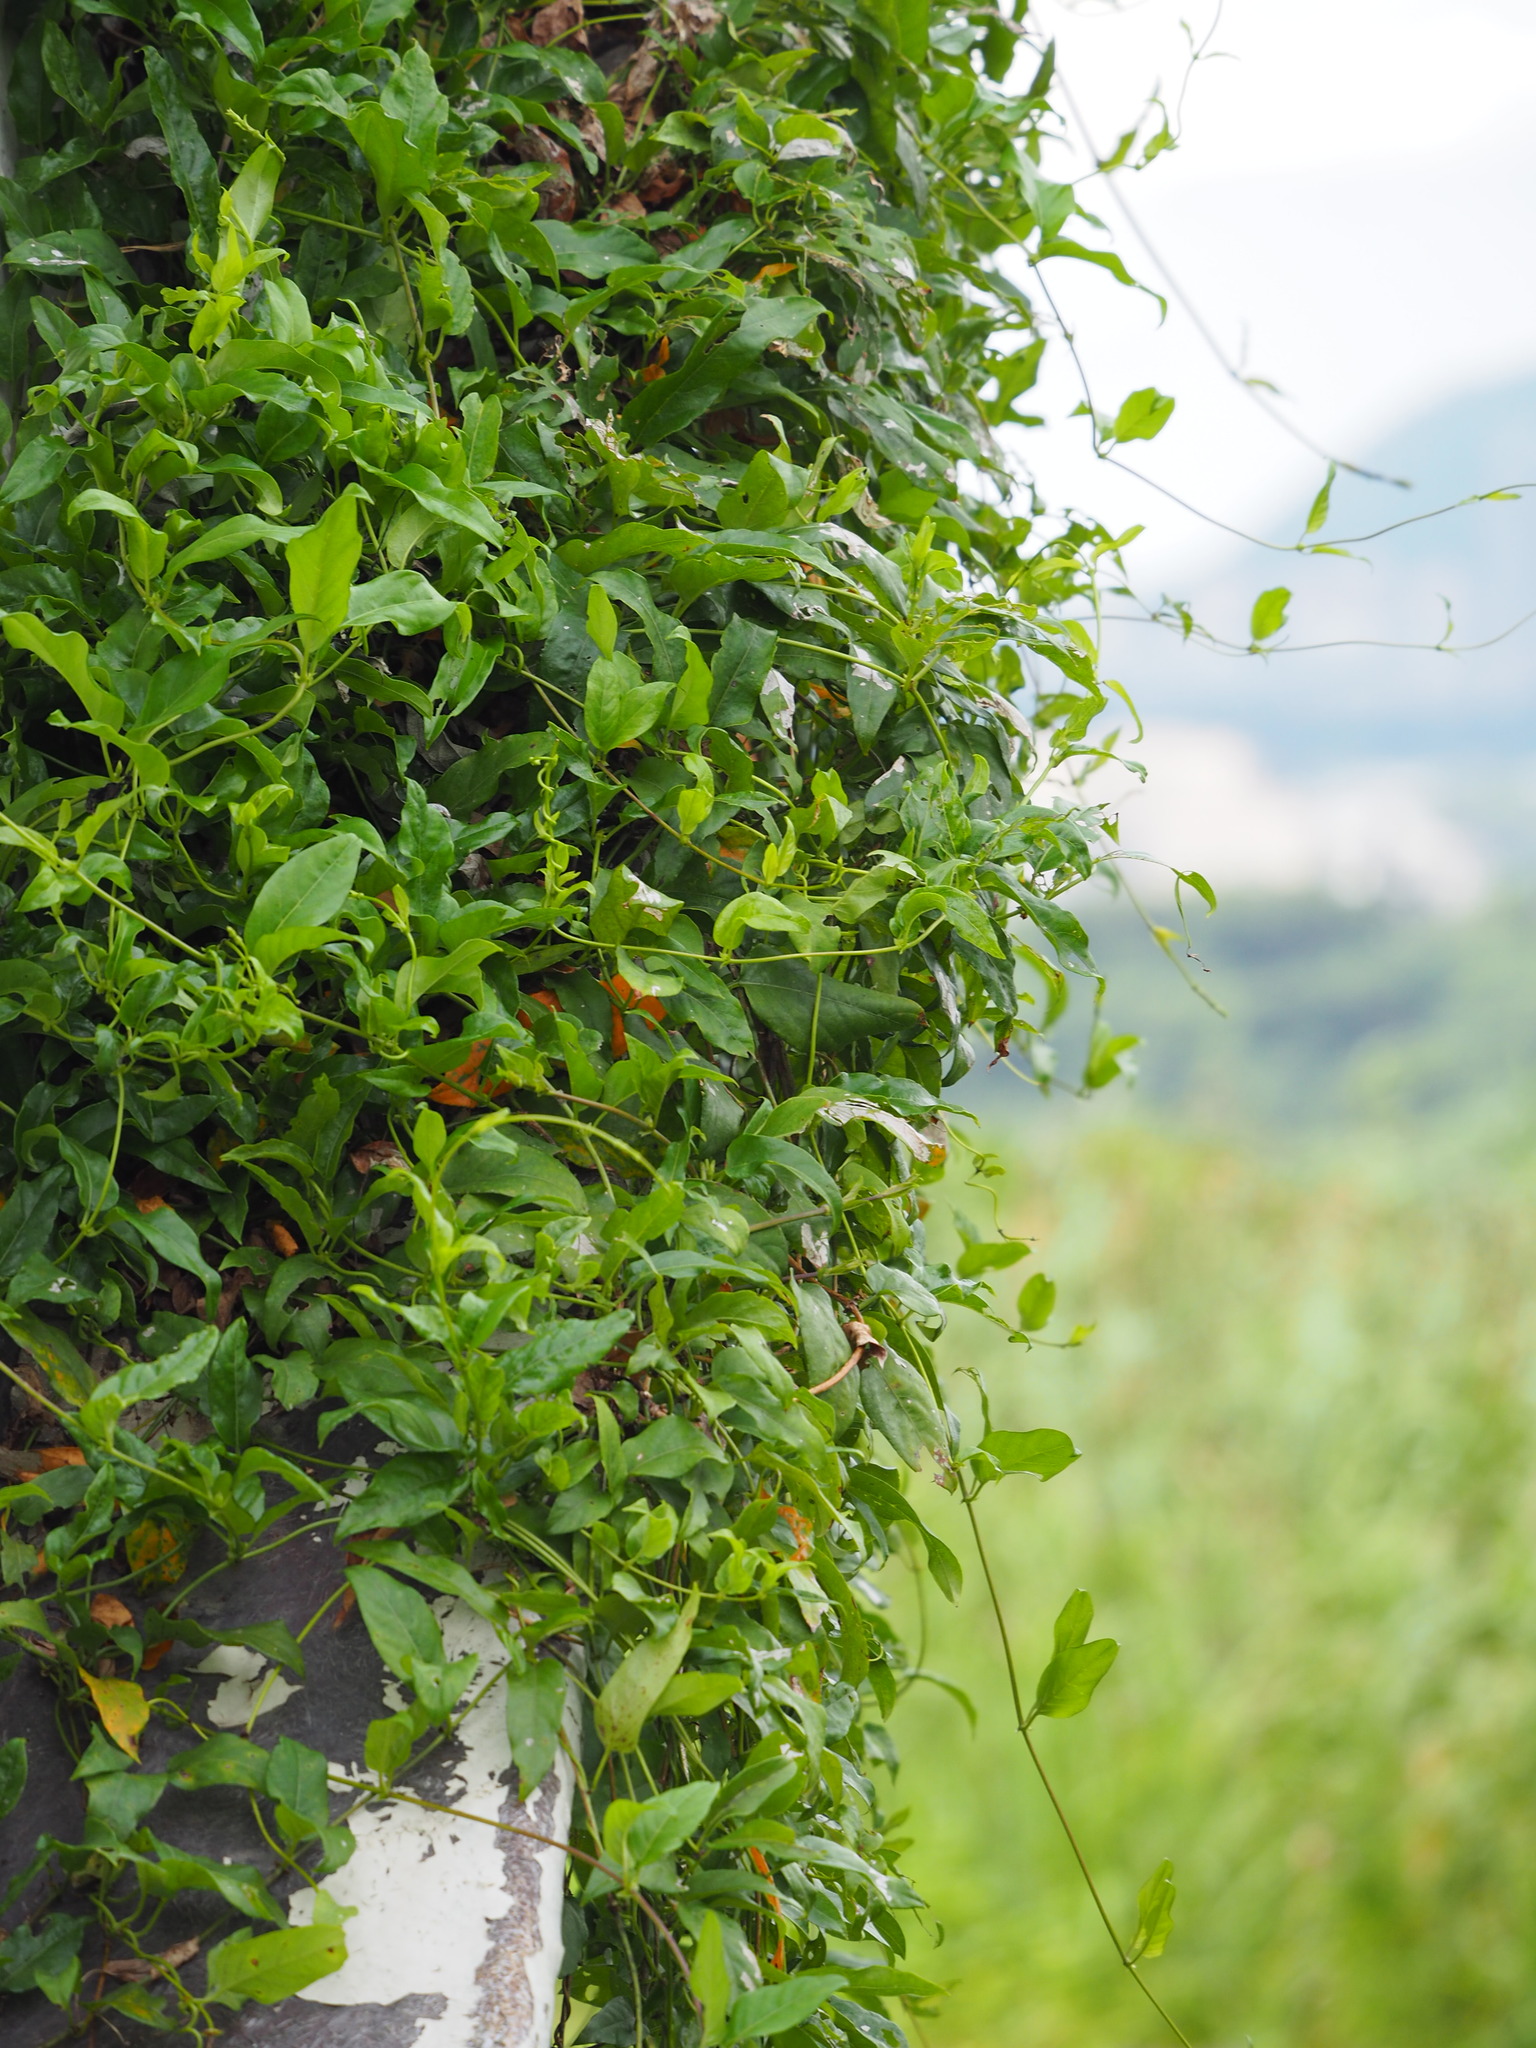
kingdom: Plantae
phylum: Tracheophyta
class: Magnoliopsida
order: Gentianales
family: Rubiaceae
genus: Paederia
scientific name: Paederia foetida
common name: Stinkvine
